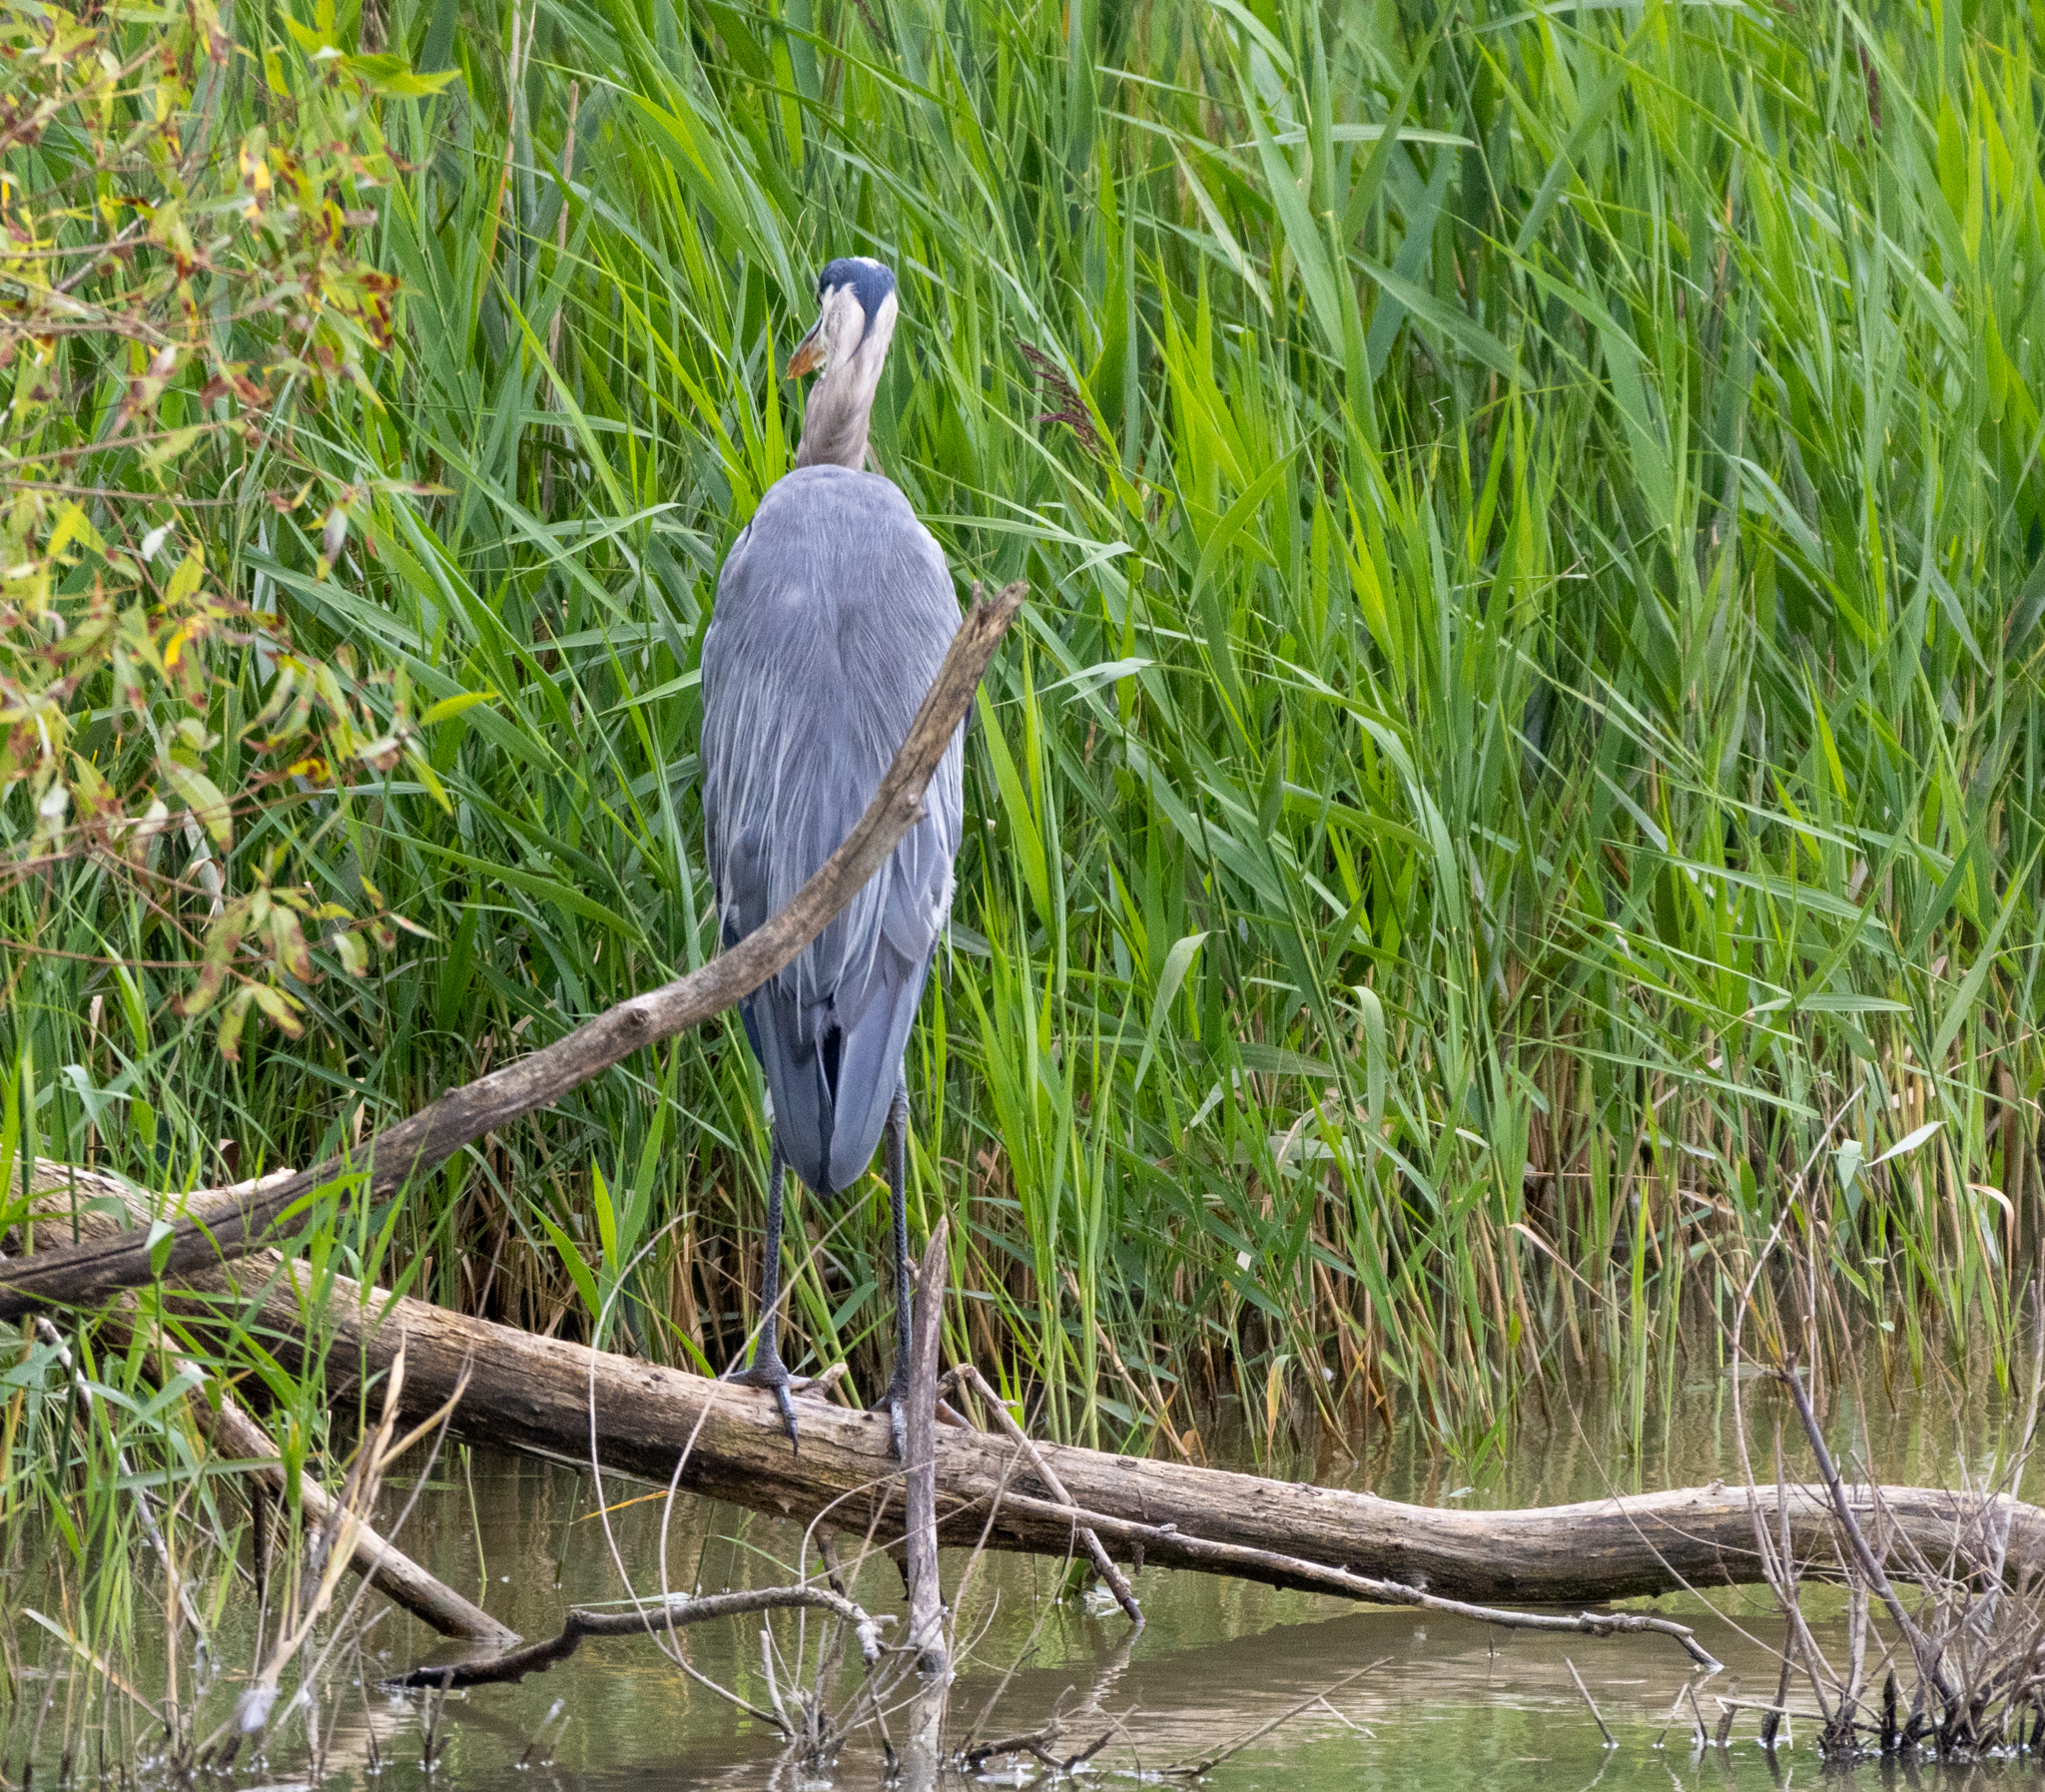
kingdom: Animalia
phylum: Chordata
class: Aves
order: Pelecaniformes
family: Ardeidae
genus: Ardea
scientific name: Ardea herodias
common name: Great blue heron
